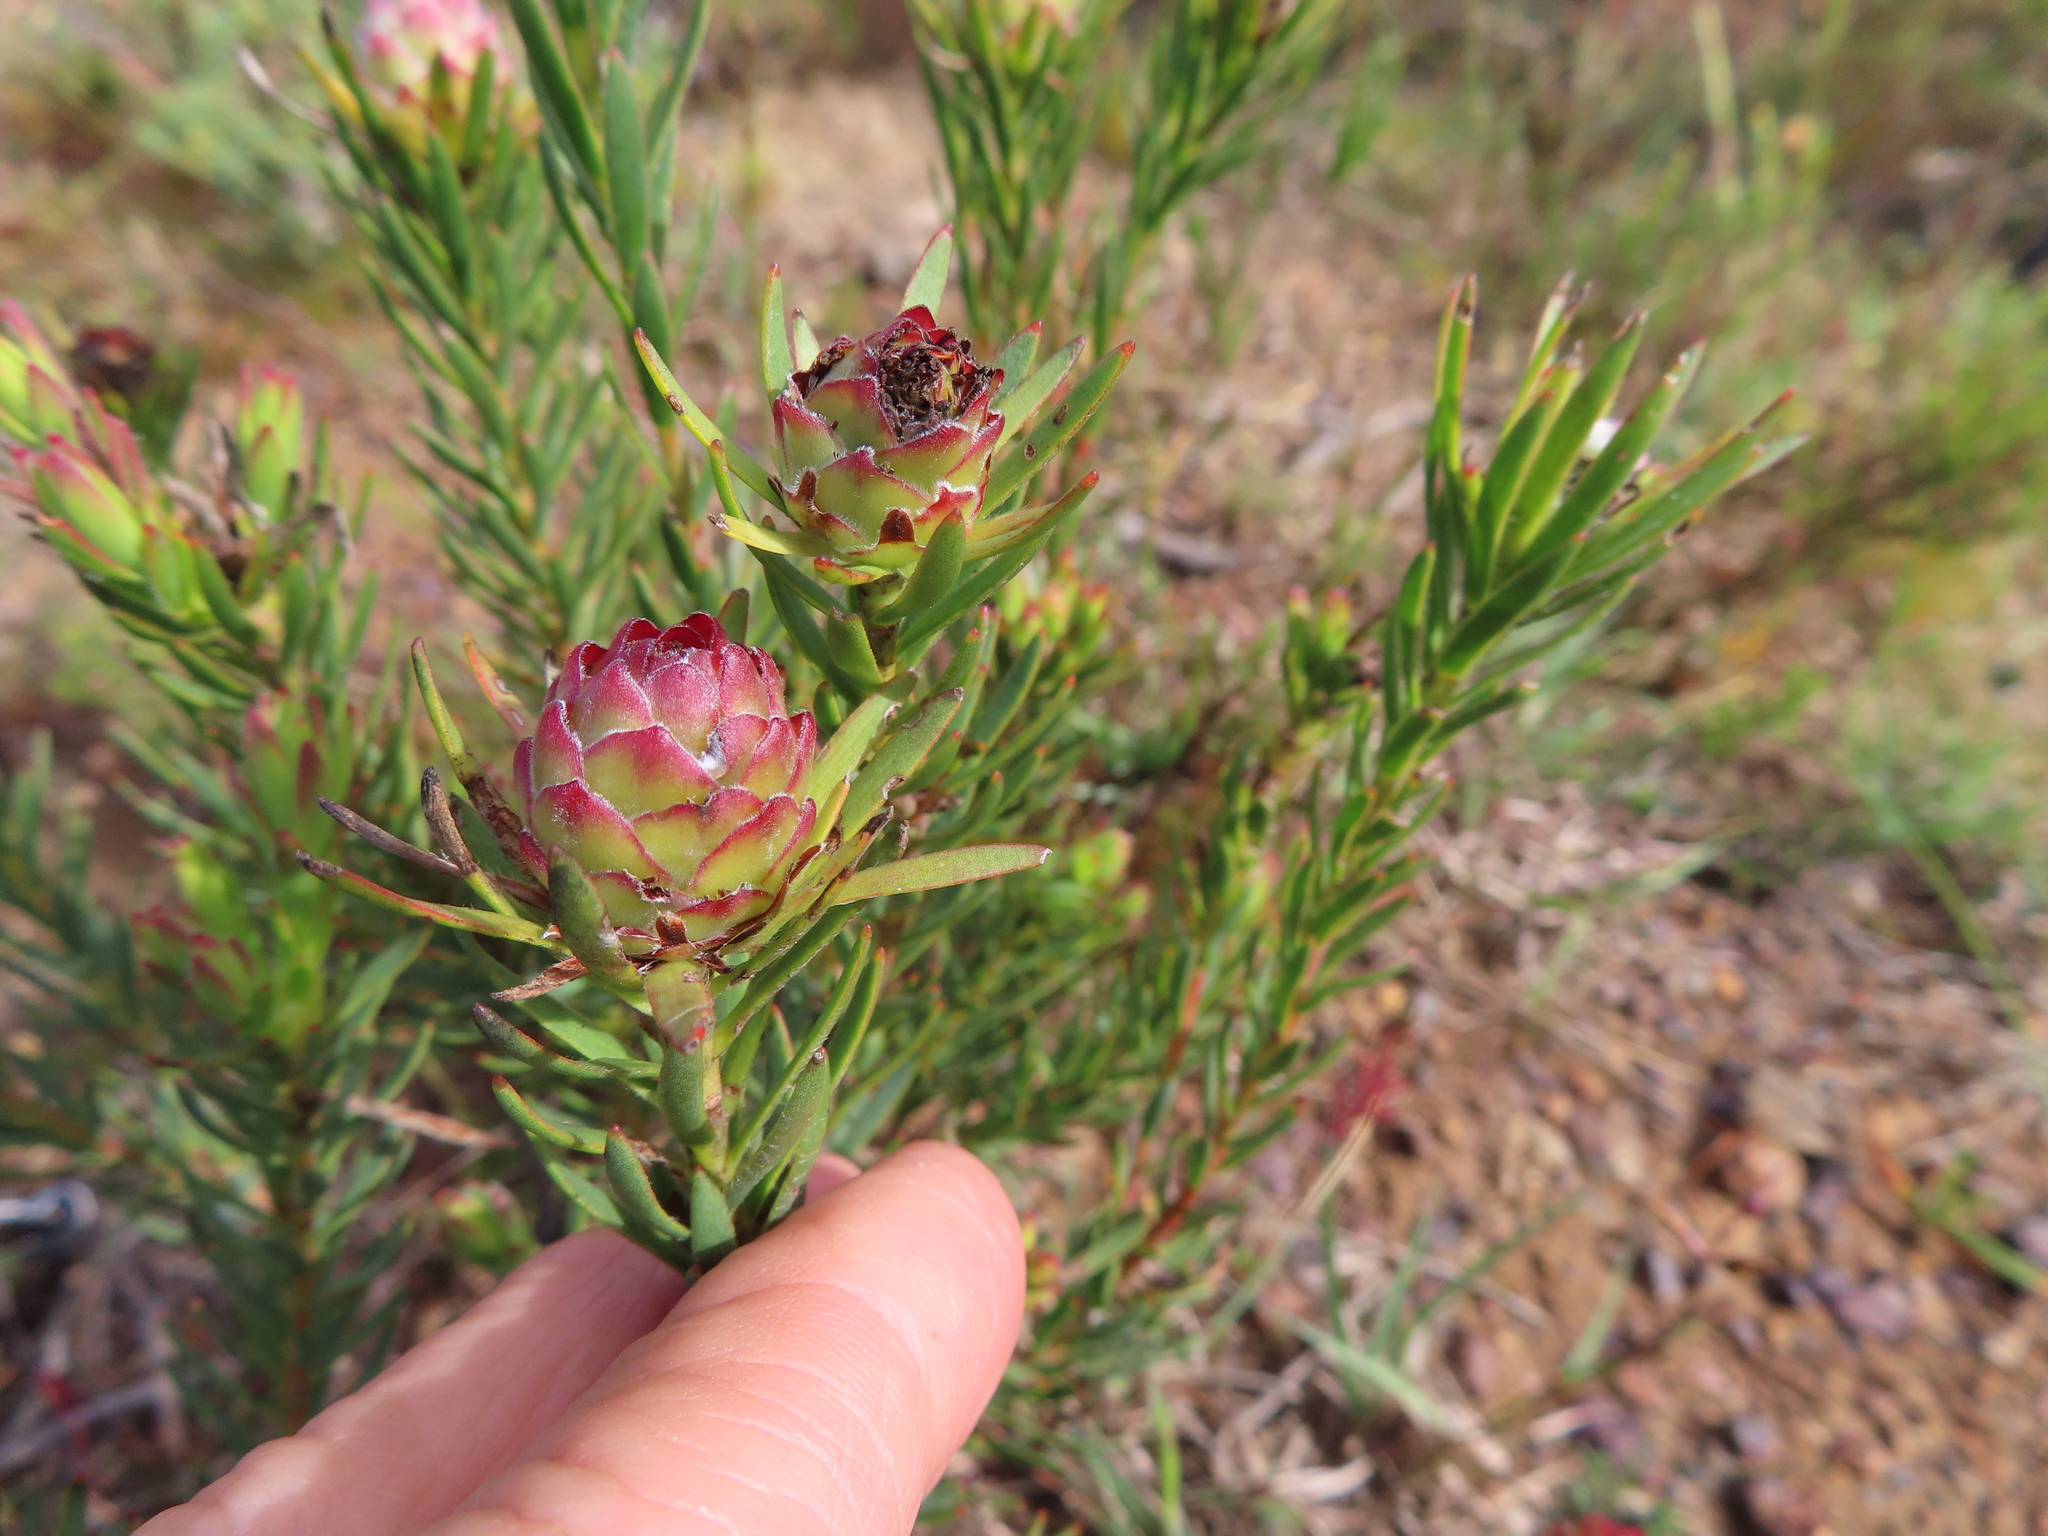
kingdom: Plantae
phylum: Tracheophyta
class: Magnoliopsida
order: Proteales
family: Proteaceae
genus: Leucadendron
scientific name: Leucadendron
